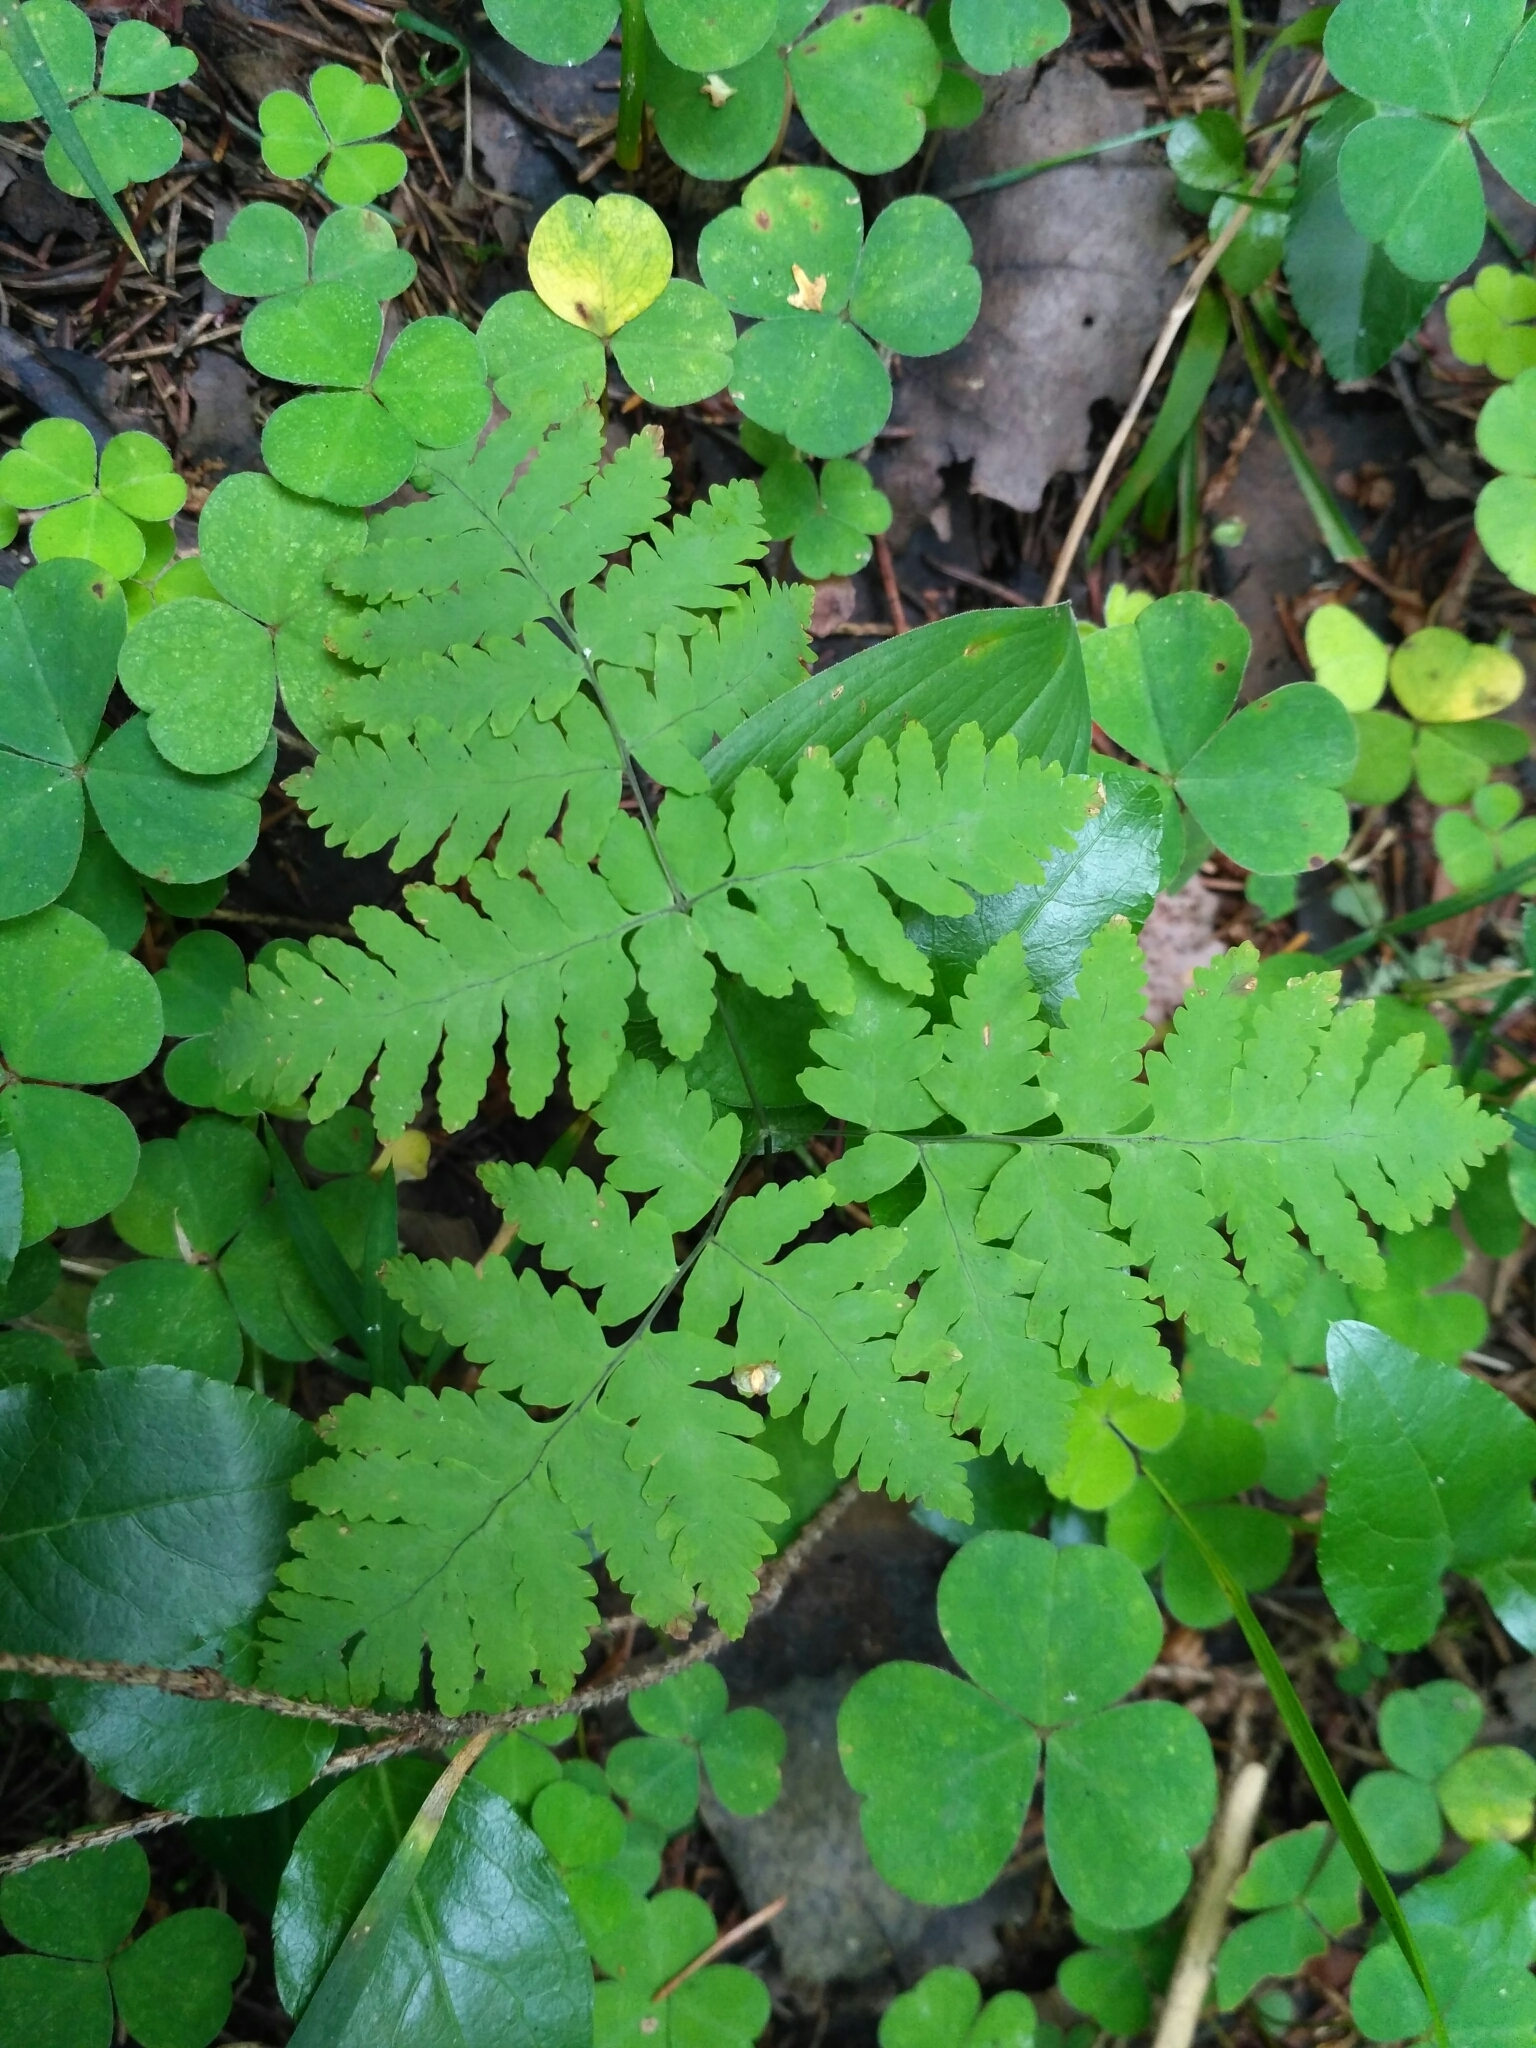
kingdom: Plantae
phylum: Tracheophyta
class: Polypodiopsida
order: Polypodiales
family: Cystopteridaceae
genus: Gymnocarpium
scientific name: Gymnocarpium dryopteris
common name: Oak fern
